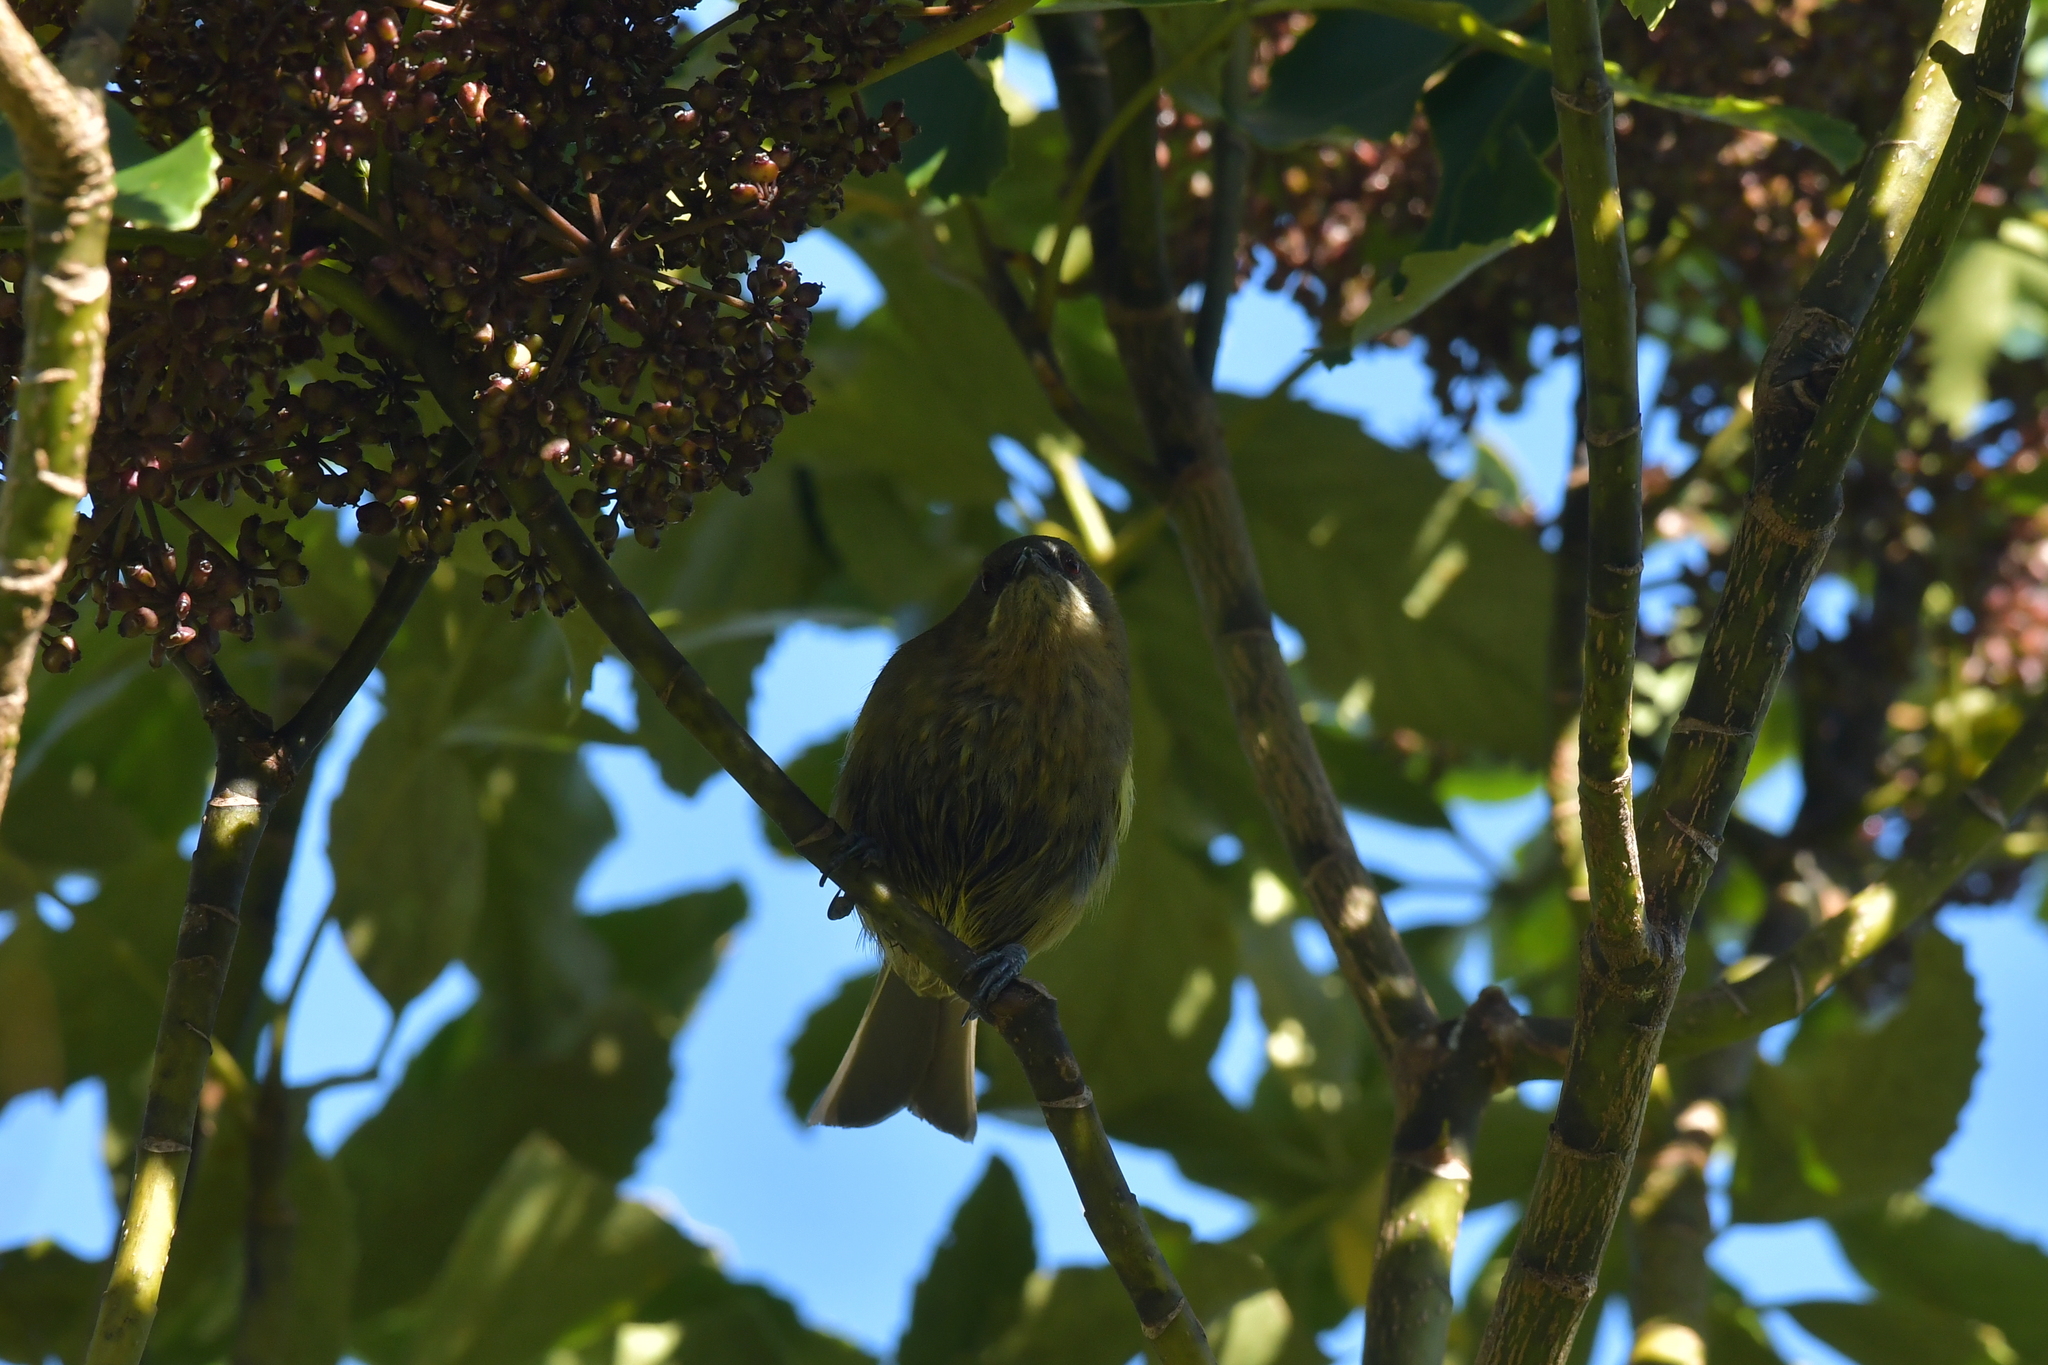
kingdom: Animalia
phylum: Chordata
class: Aves
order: Passeriformes
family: Meliphagidae
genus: Anthornis
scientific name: Anthornis melanura
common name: New zealand bellbird
